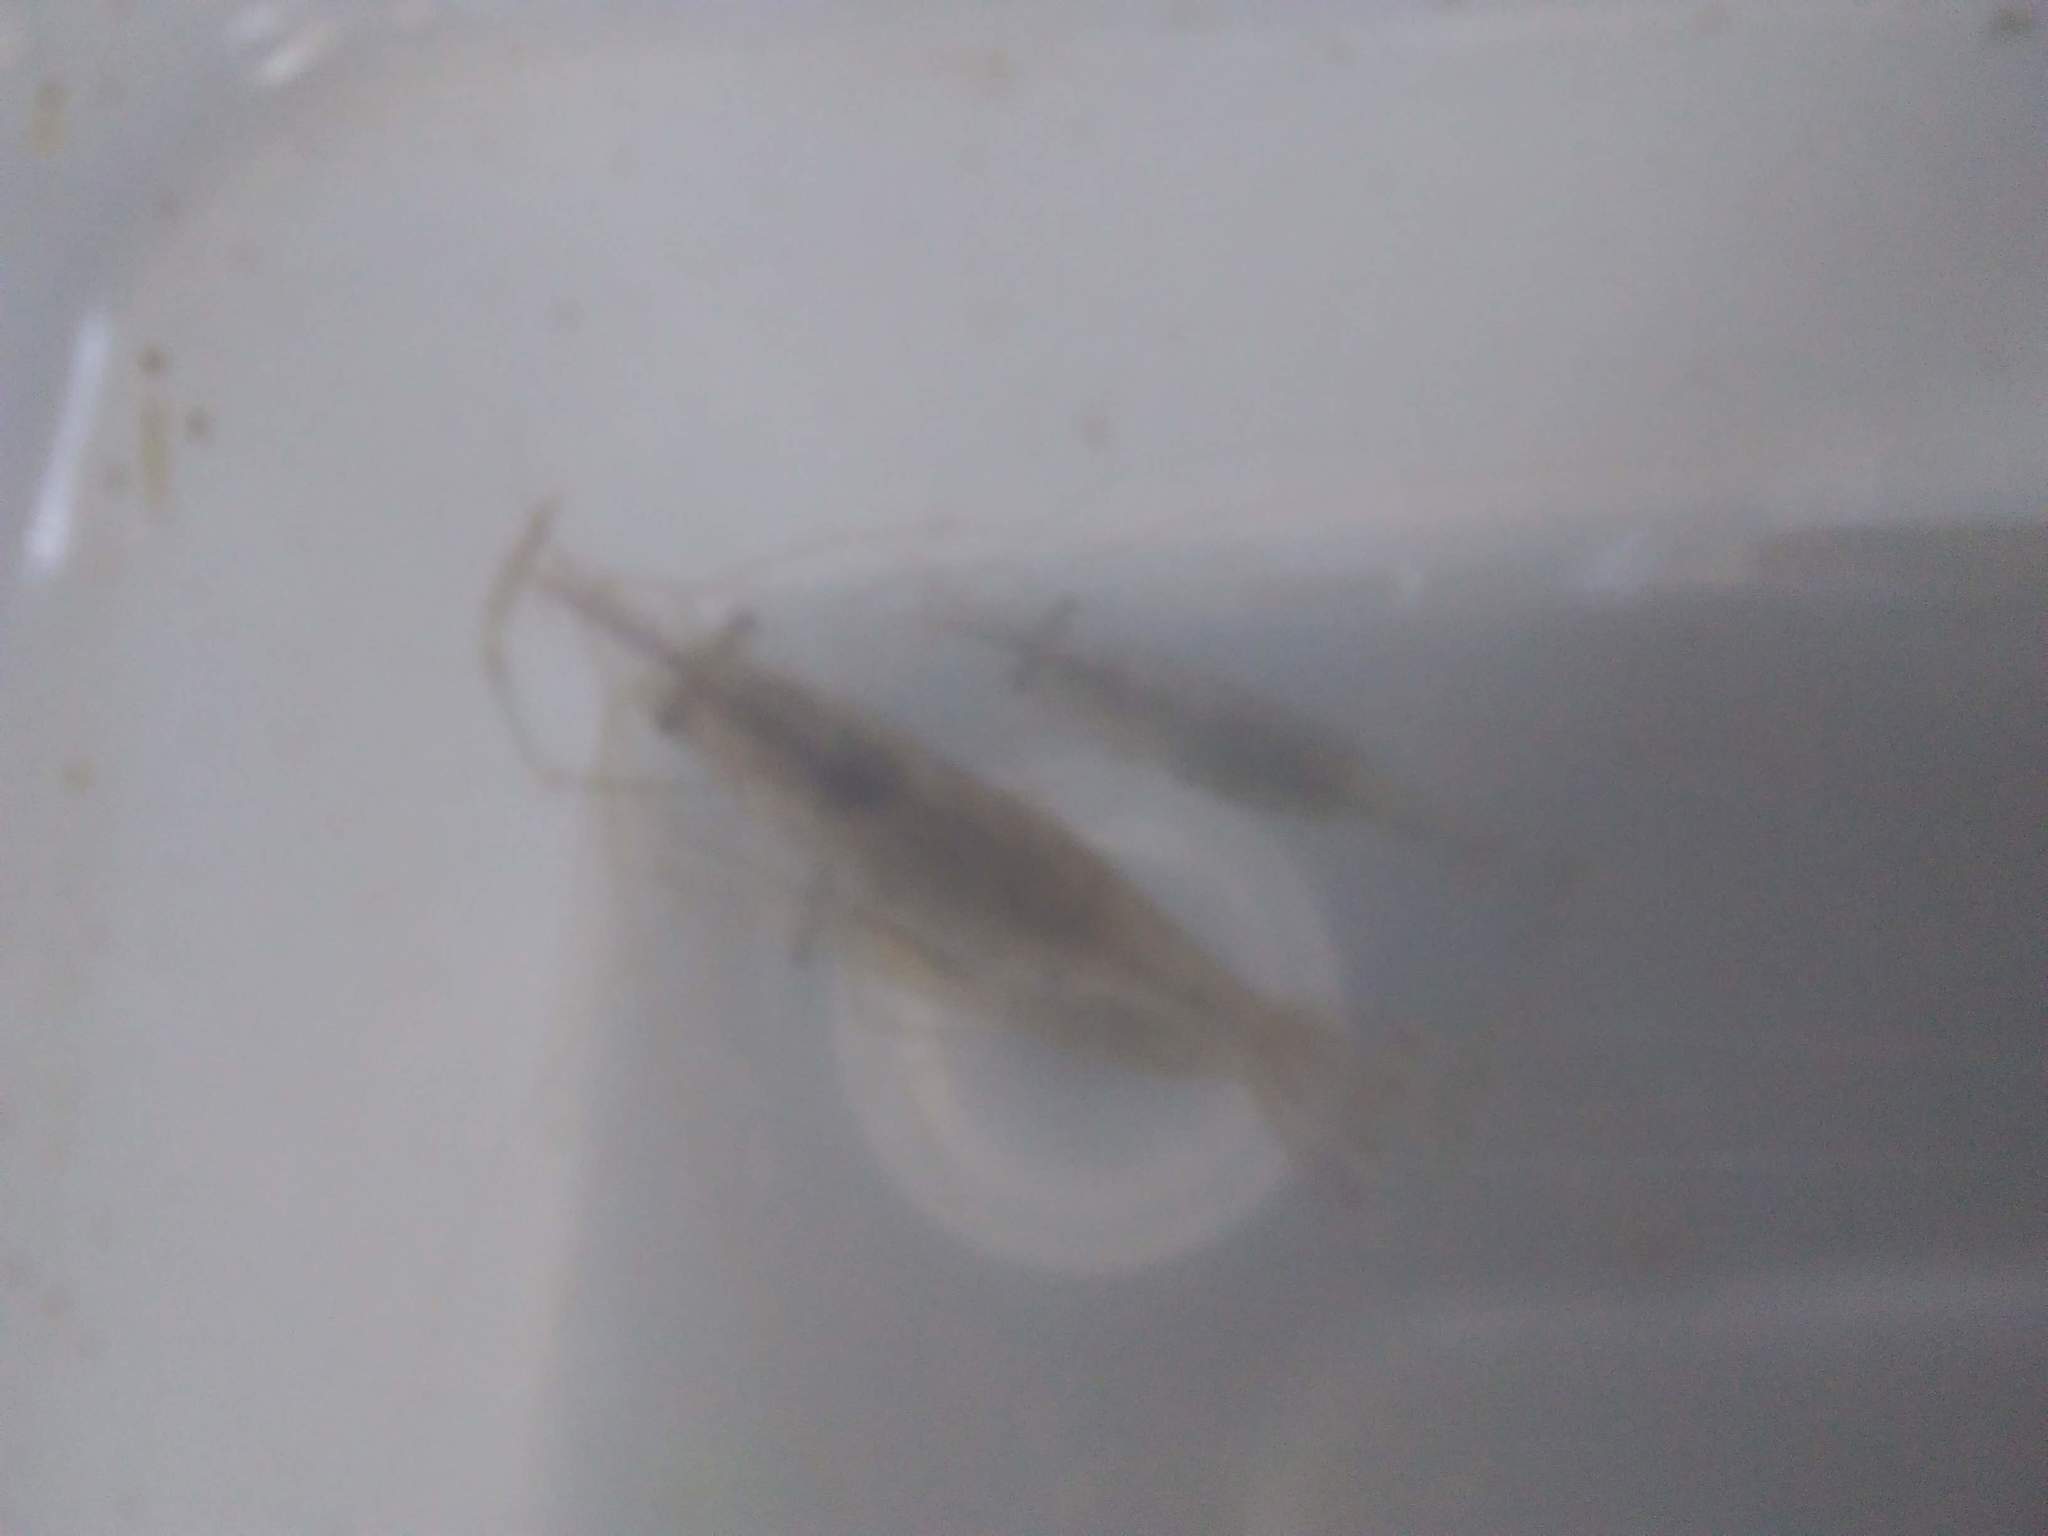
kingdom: Animalia
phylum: Arthropoda
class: Malacostraca
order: Decapoda
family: Palaemonidae
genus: Palaemon
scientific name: Palaemon
